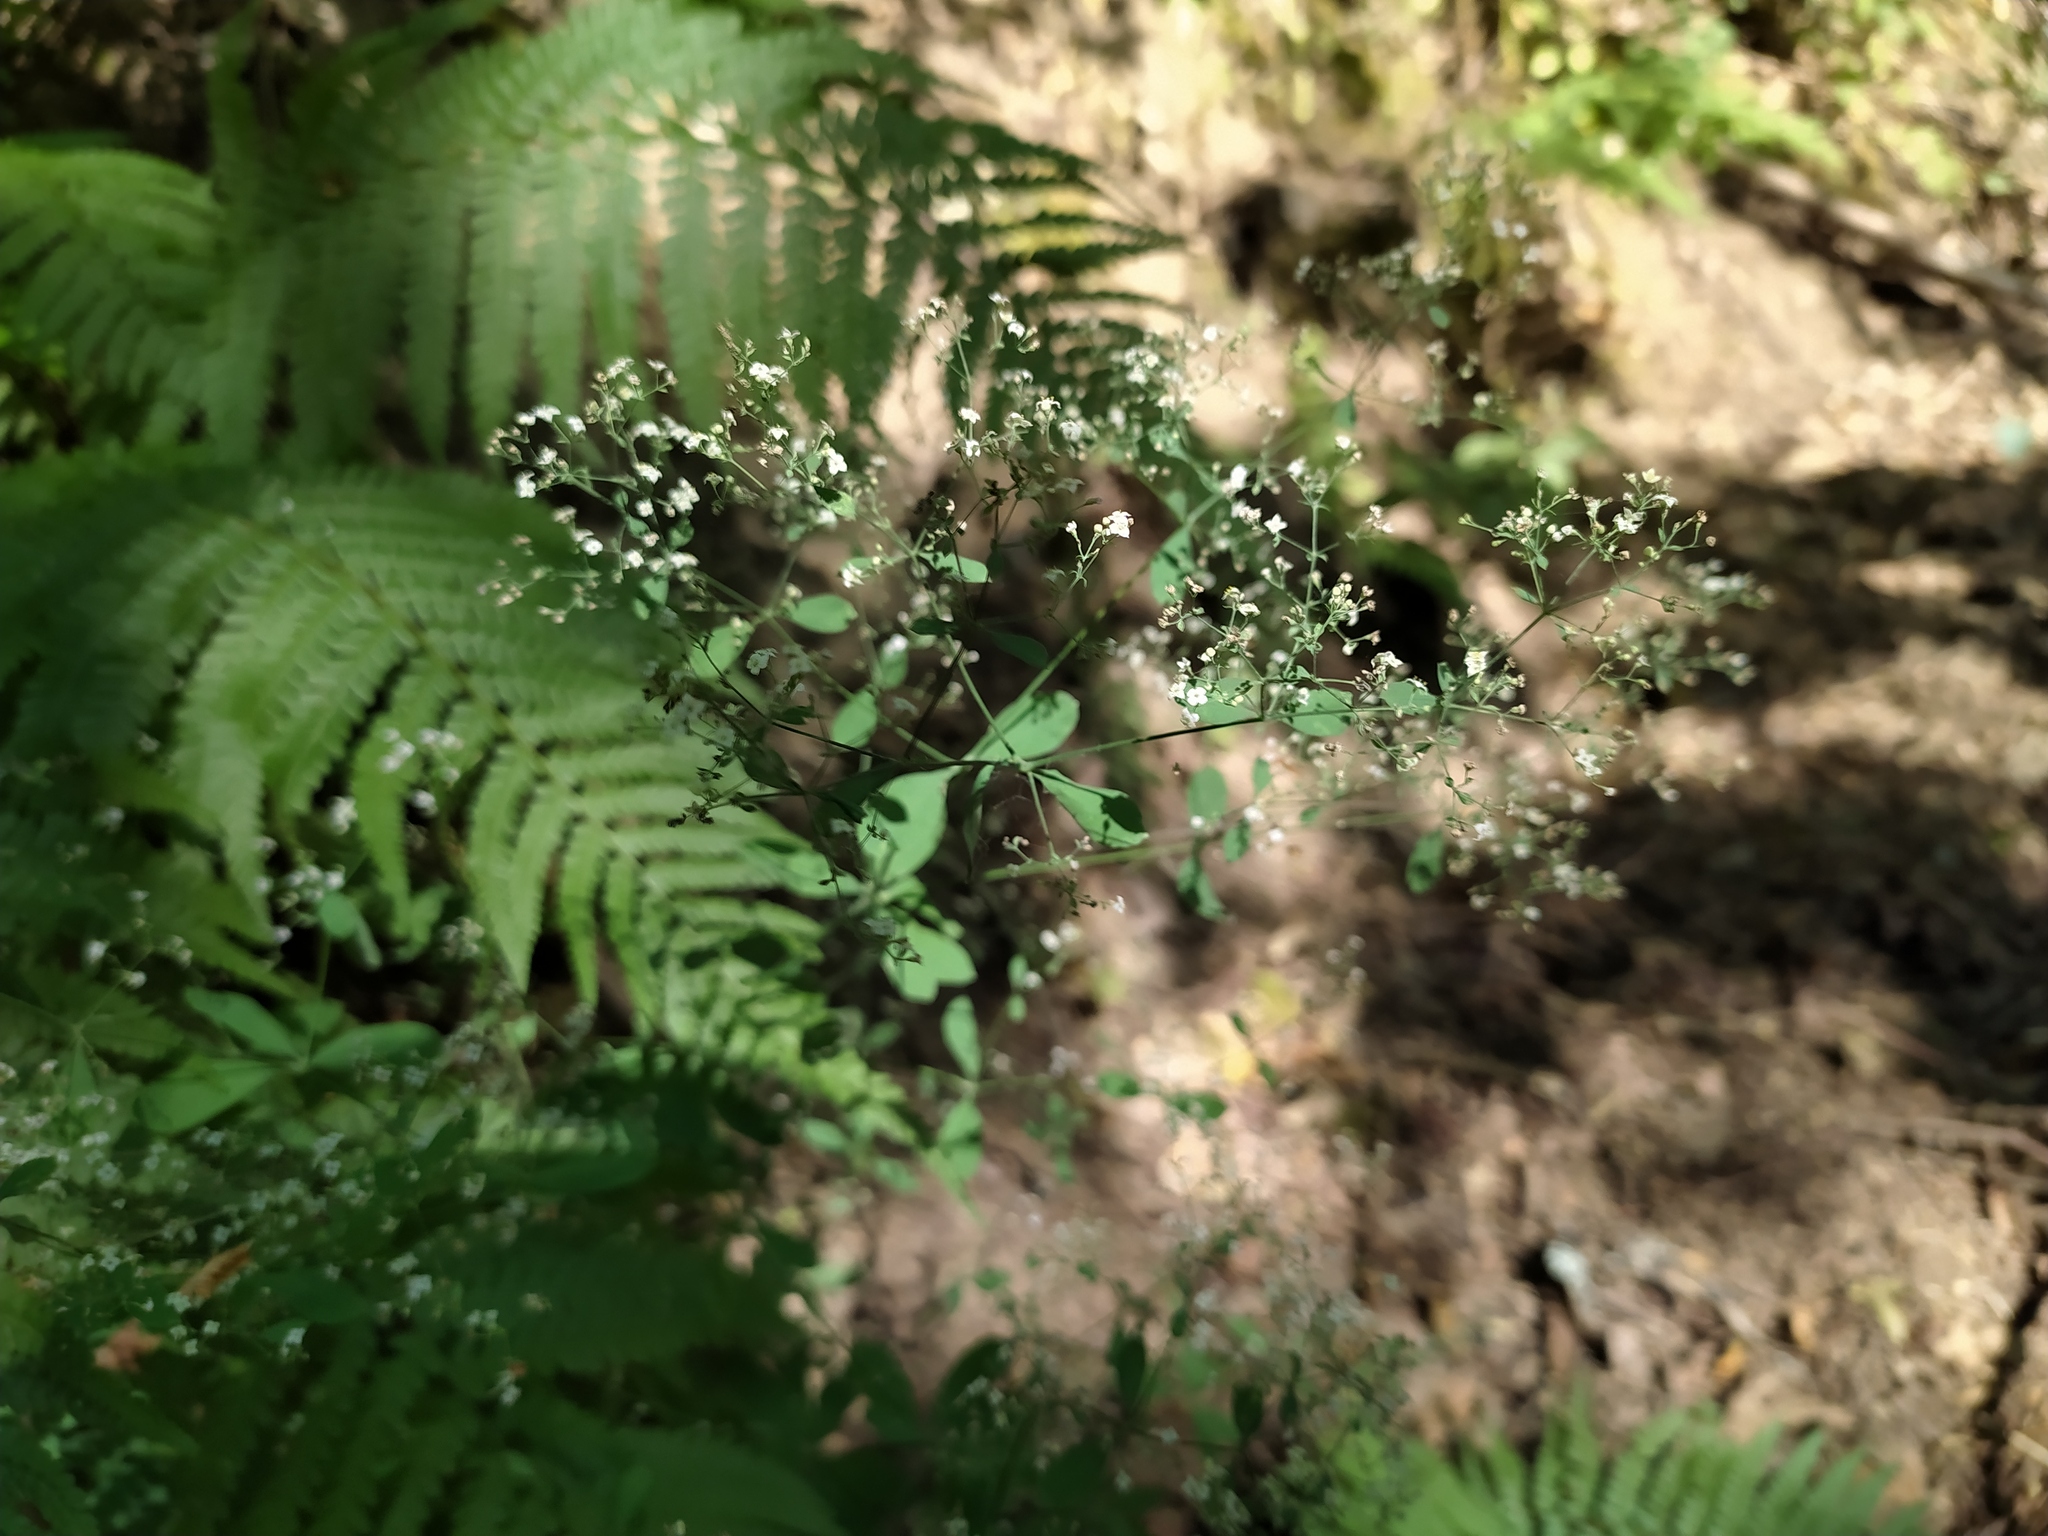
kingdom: Plantae
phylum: Tracheophyta
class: Magnoliopsida
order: Gentianales
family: Rubiaceae
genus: Galium
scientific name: Galium sylvaticum
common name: Wood bedstraw
